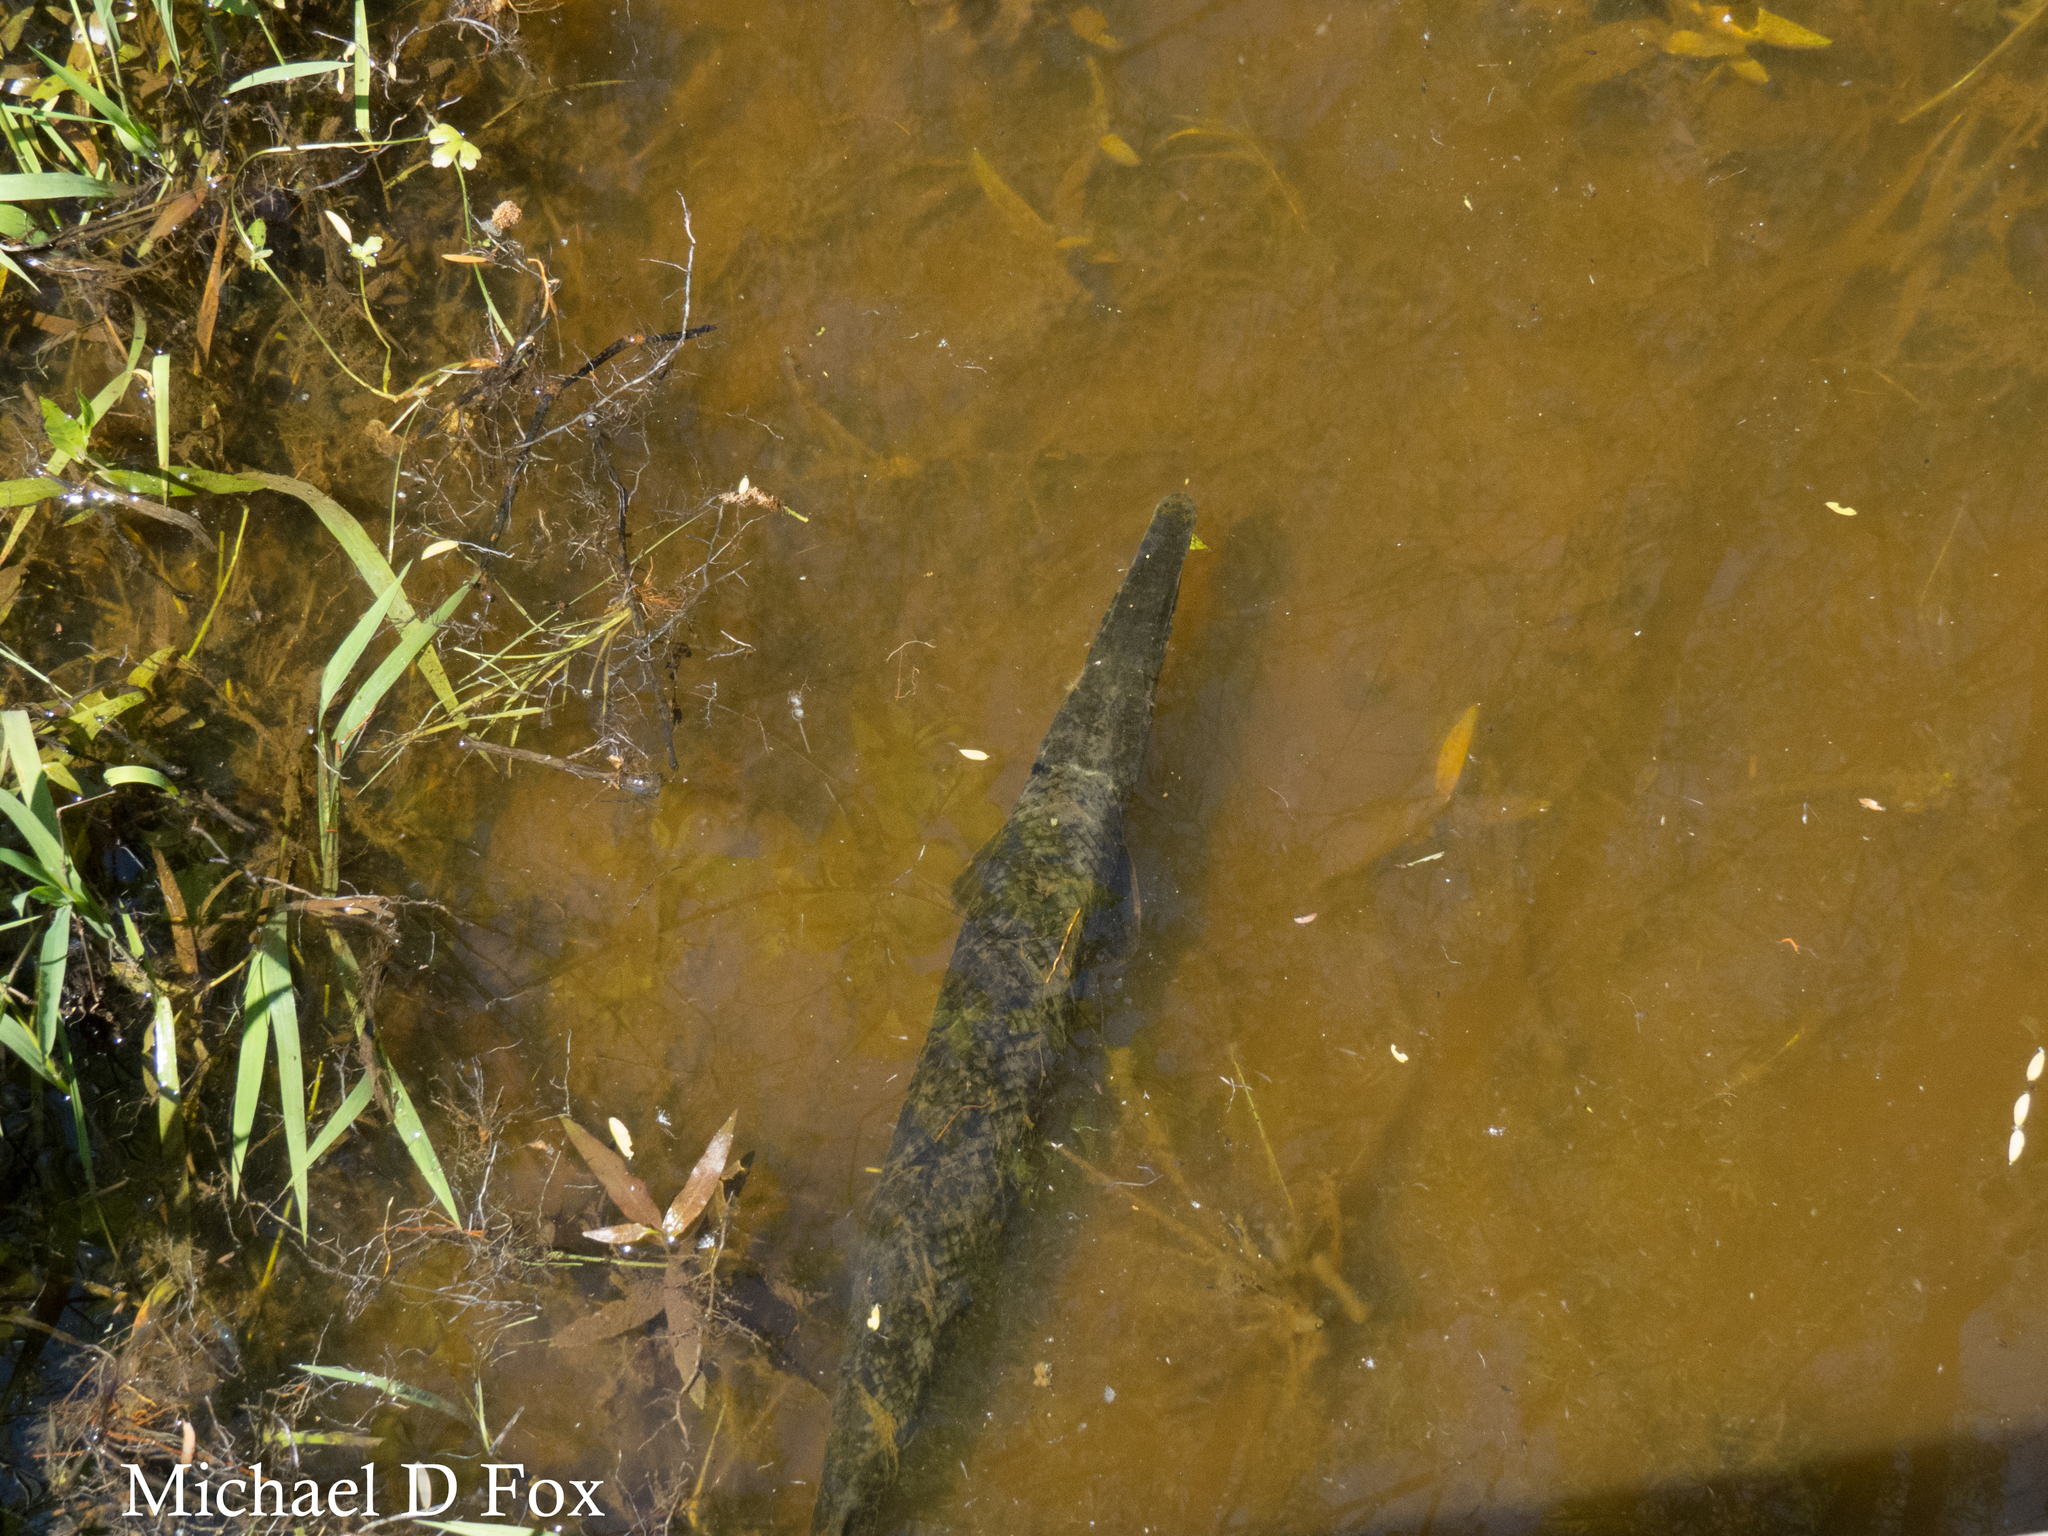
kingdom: Animalia
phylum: Chordata
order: Lepisosteiformes
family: Lepisosteidae
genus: Lepisosteus
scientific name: Lepisosteus oculatus
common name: Spotted gar
